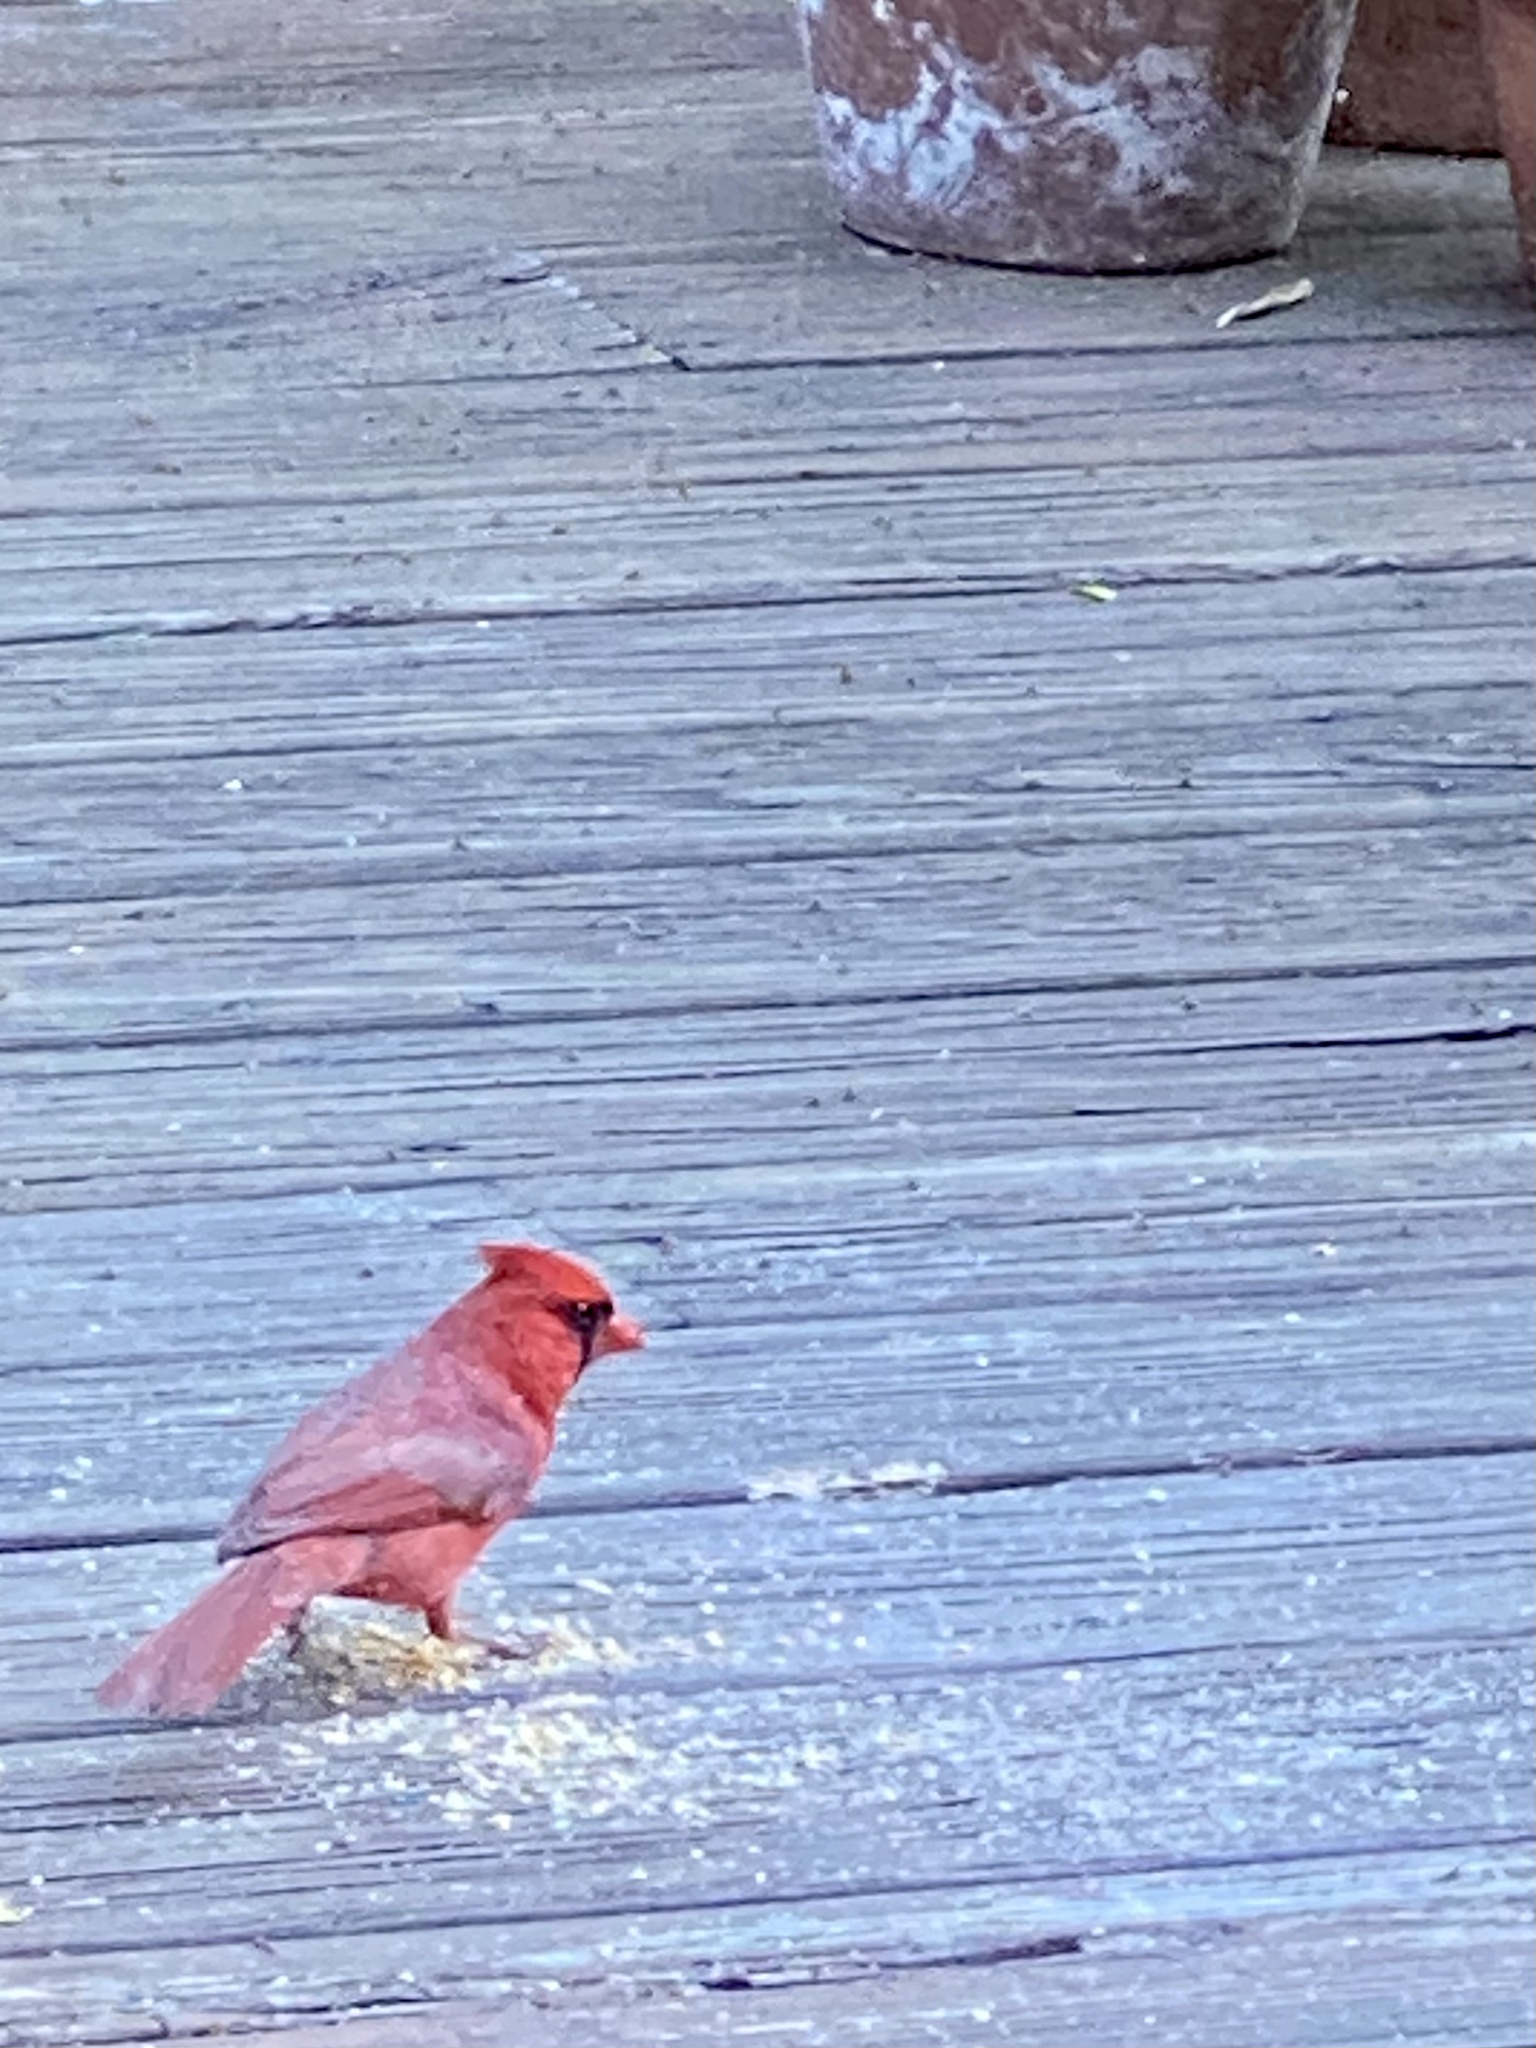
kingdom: Animalia
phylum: Chordata
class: Aves
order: Passeriformes
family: Cardinalidae
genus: Cardinalis
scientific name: Cardinalis cardinalis
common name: Northern cardinal
